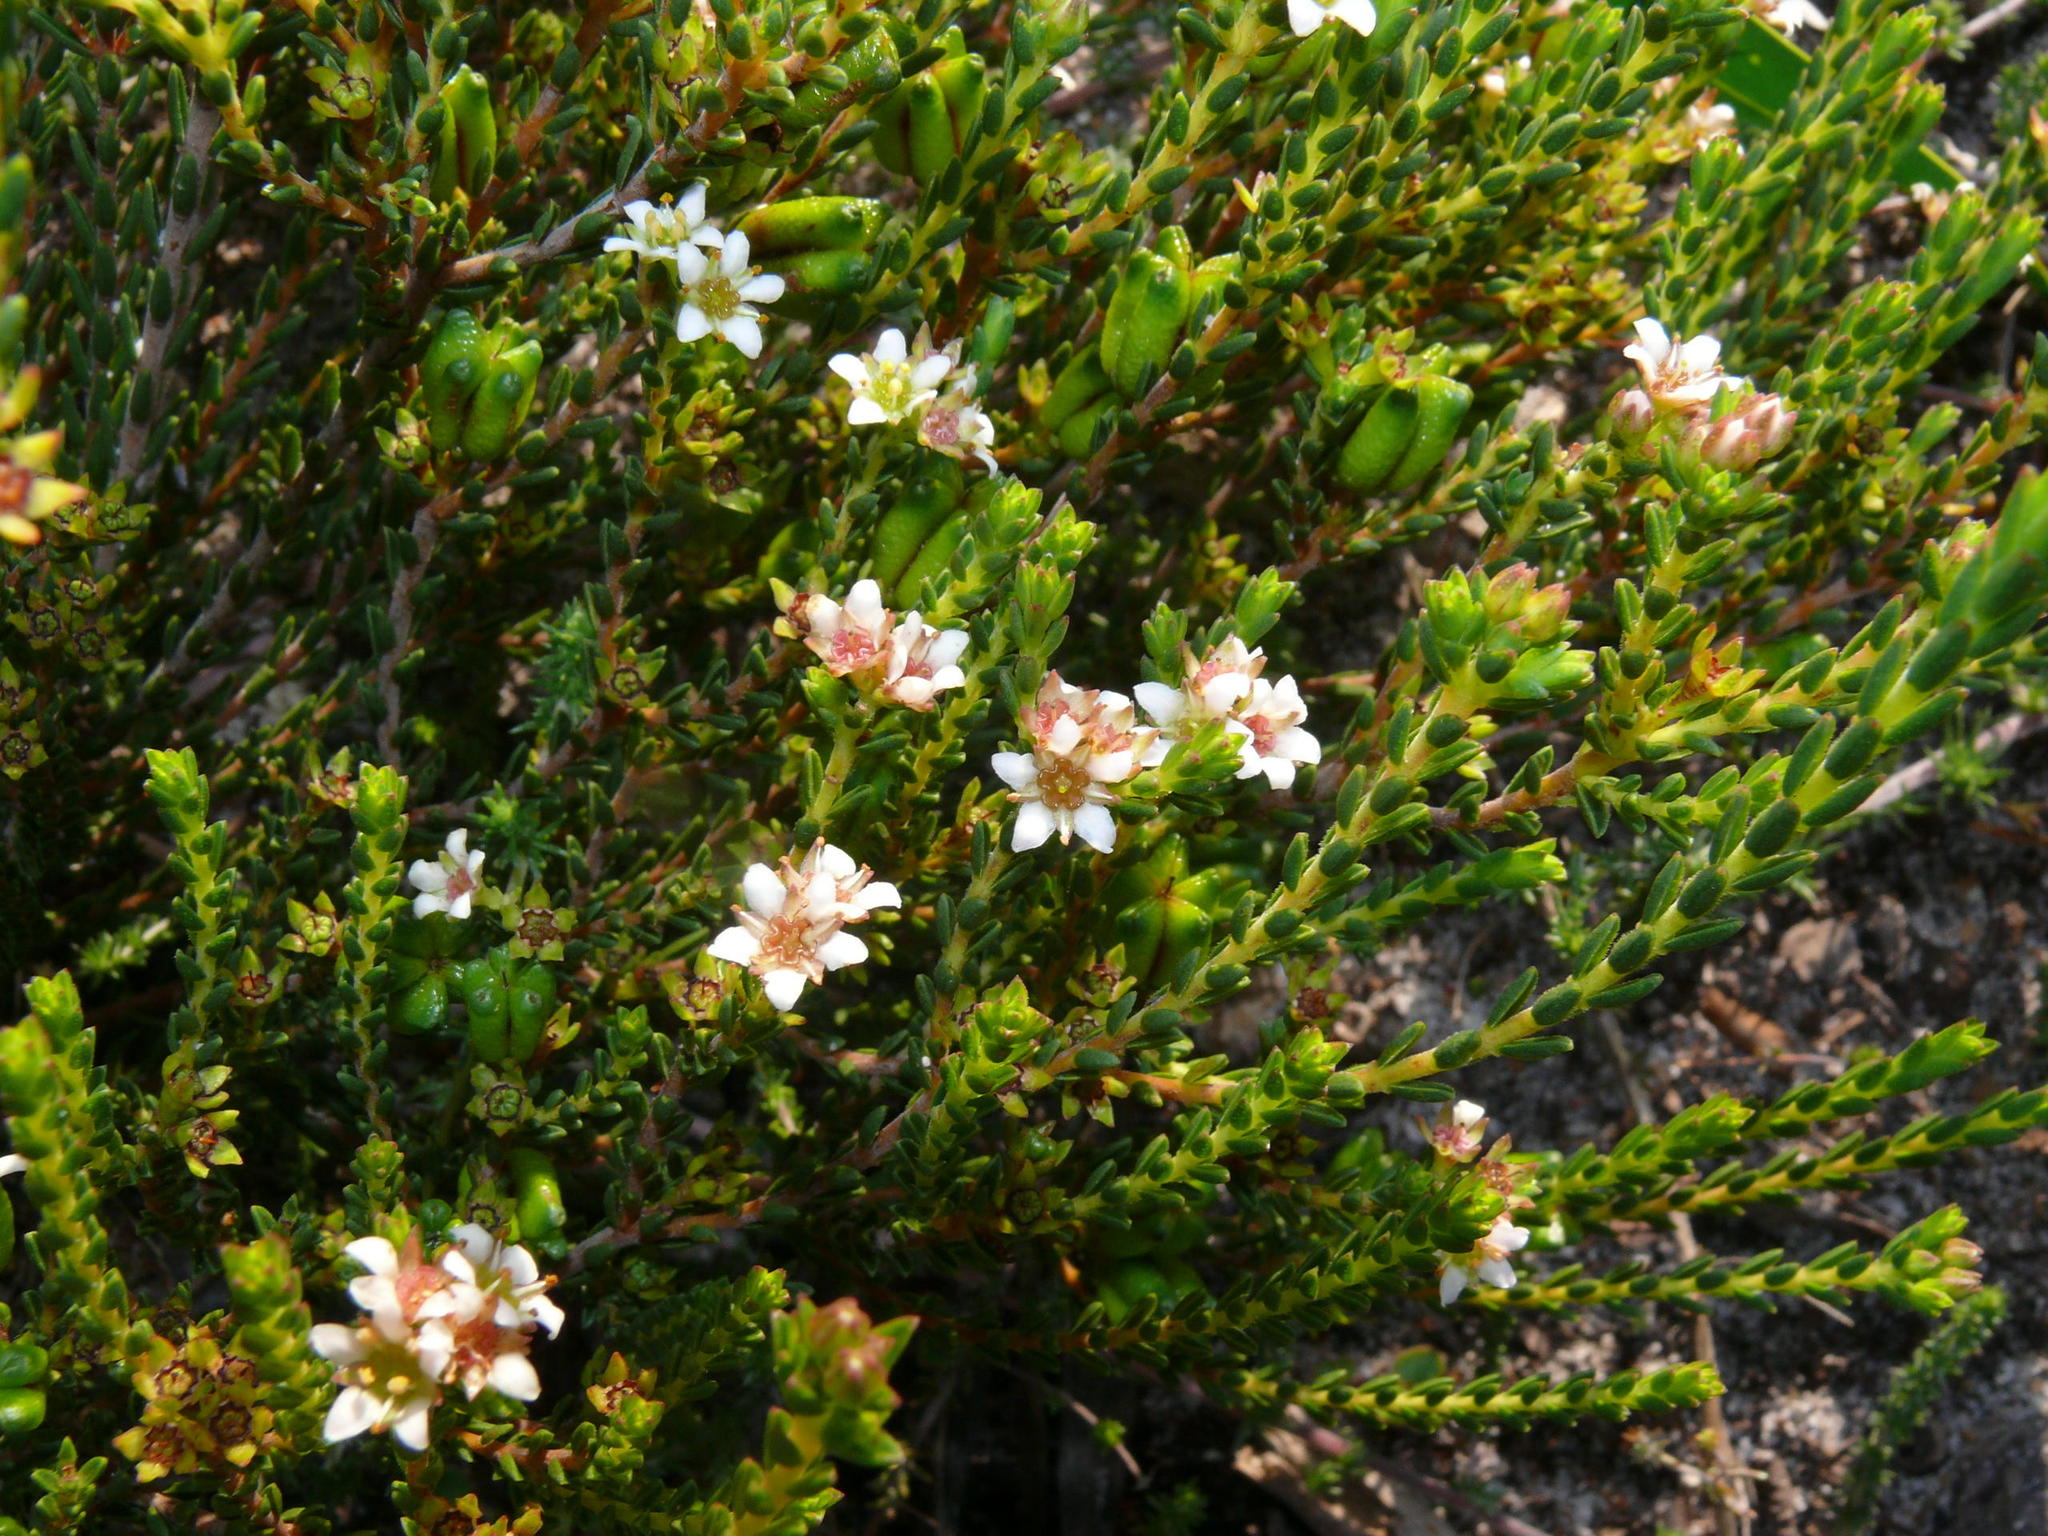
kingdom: Plantae
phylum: Tracheophyta
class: Magnoliopsida
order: Sapindales
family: Rutaceae
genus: Diosma
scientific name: Diosma oppositifolia
